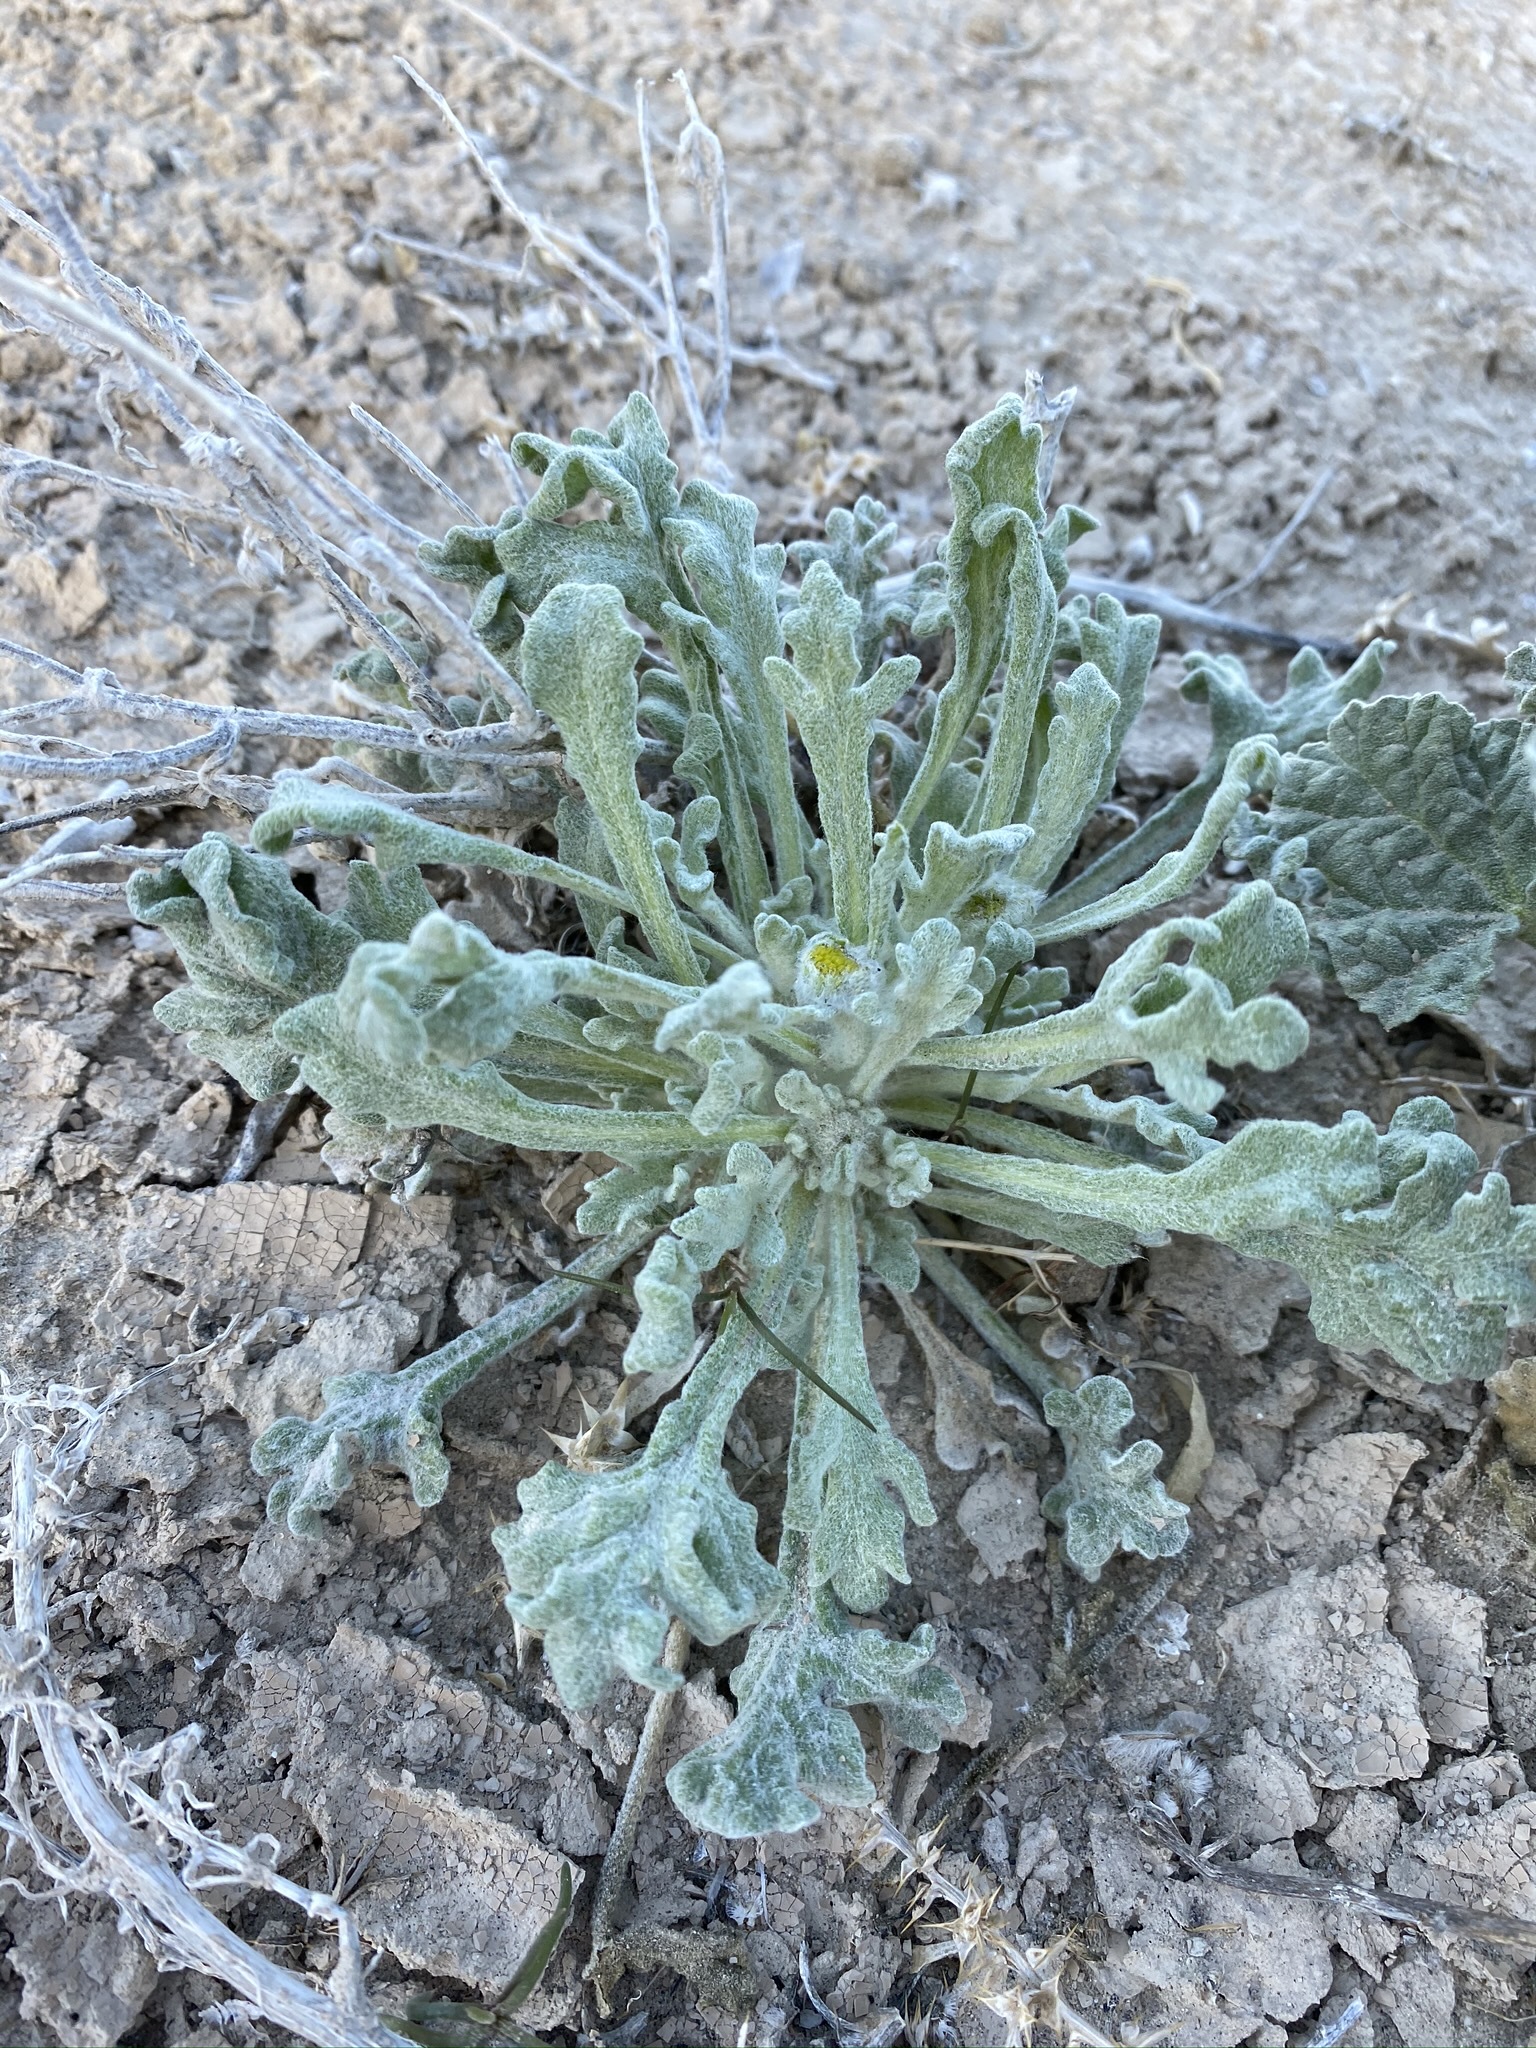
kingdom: Plantae
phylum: Tracheophyta
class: Magnoliopsida
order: Asterales
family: Asteraceae
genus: Baileya
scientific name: Baileya multiradiata
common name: Desert-marigold
